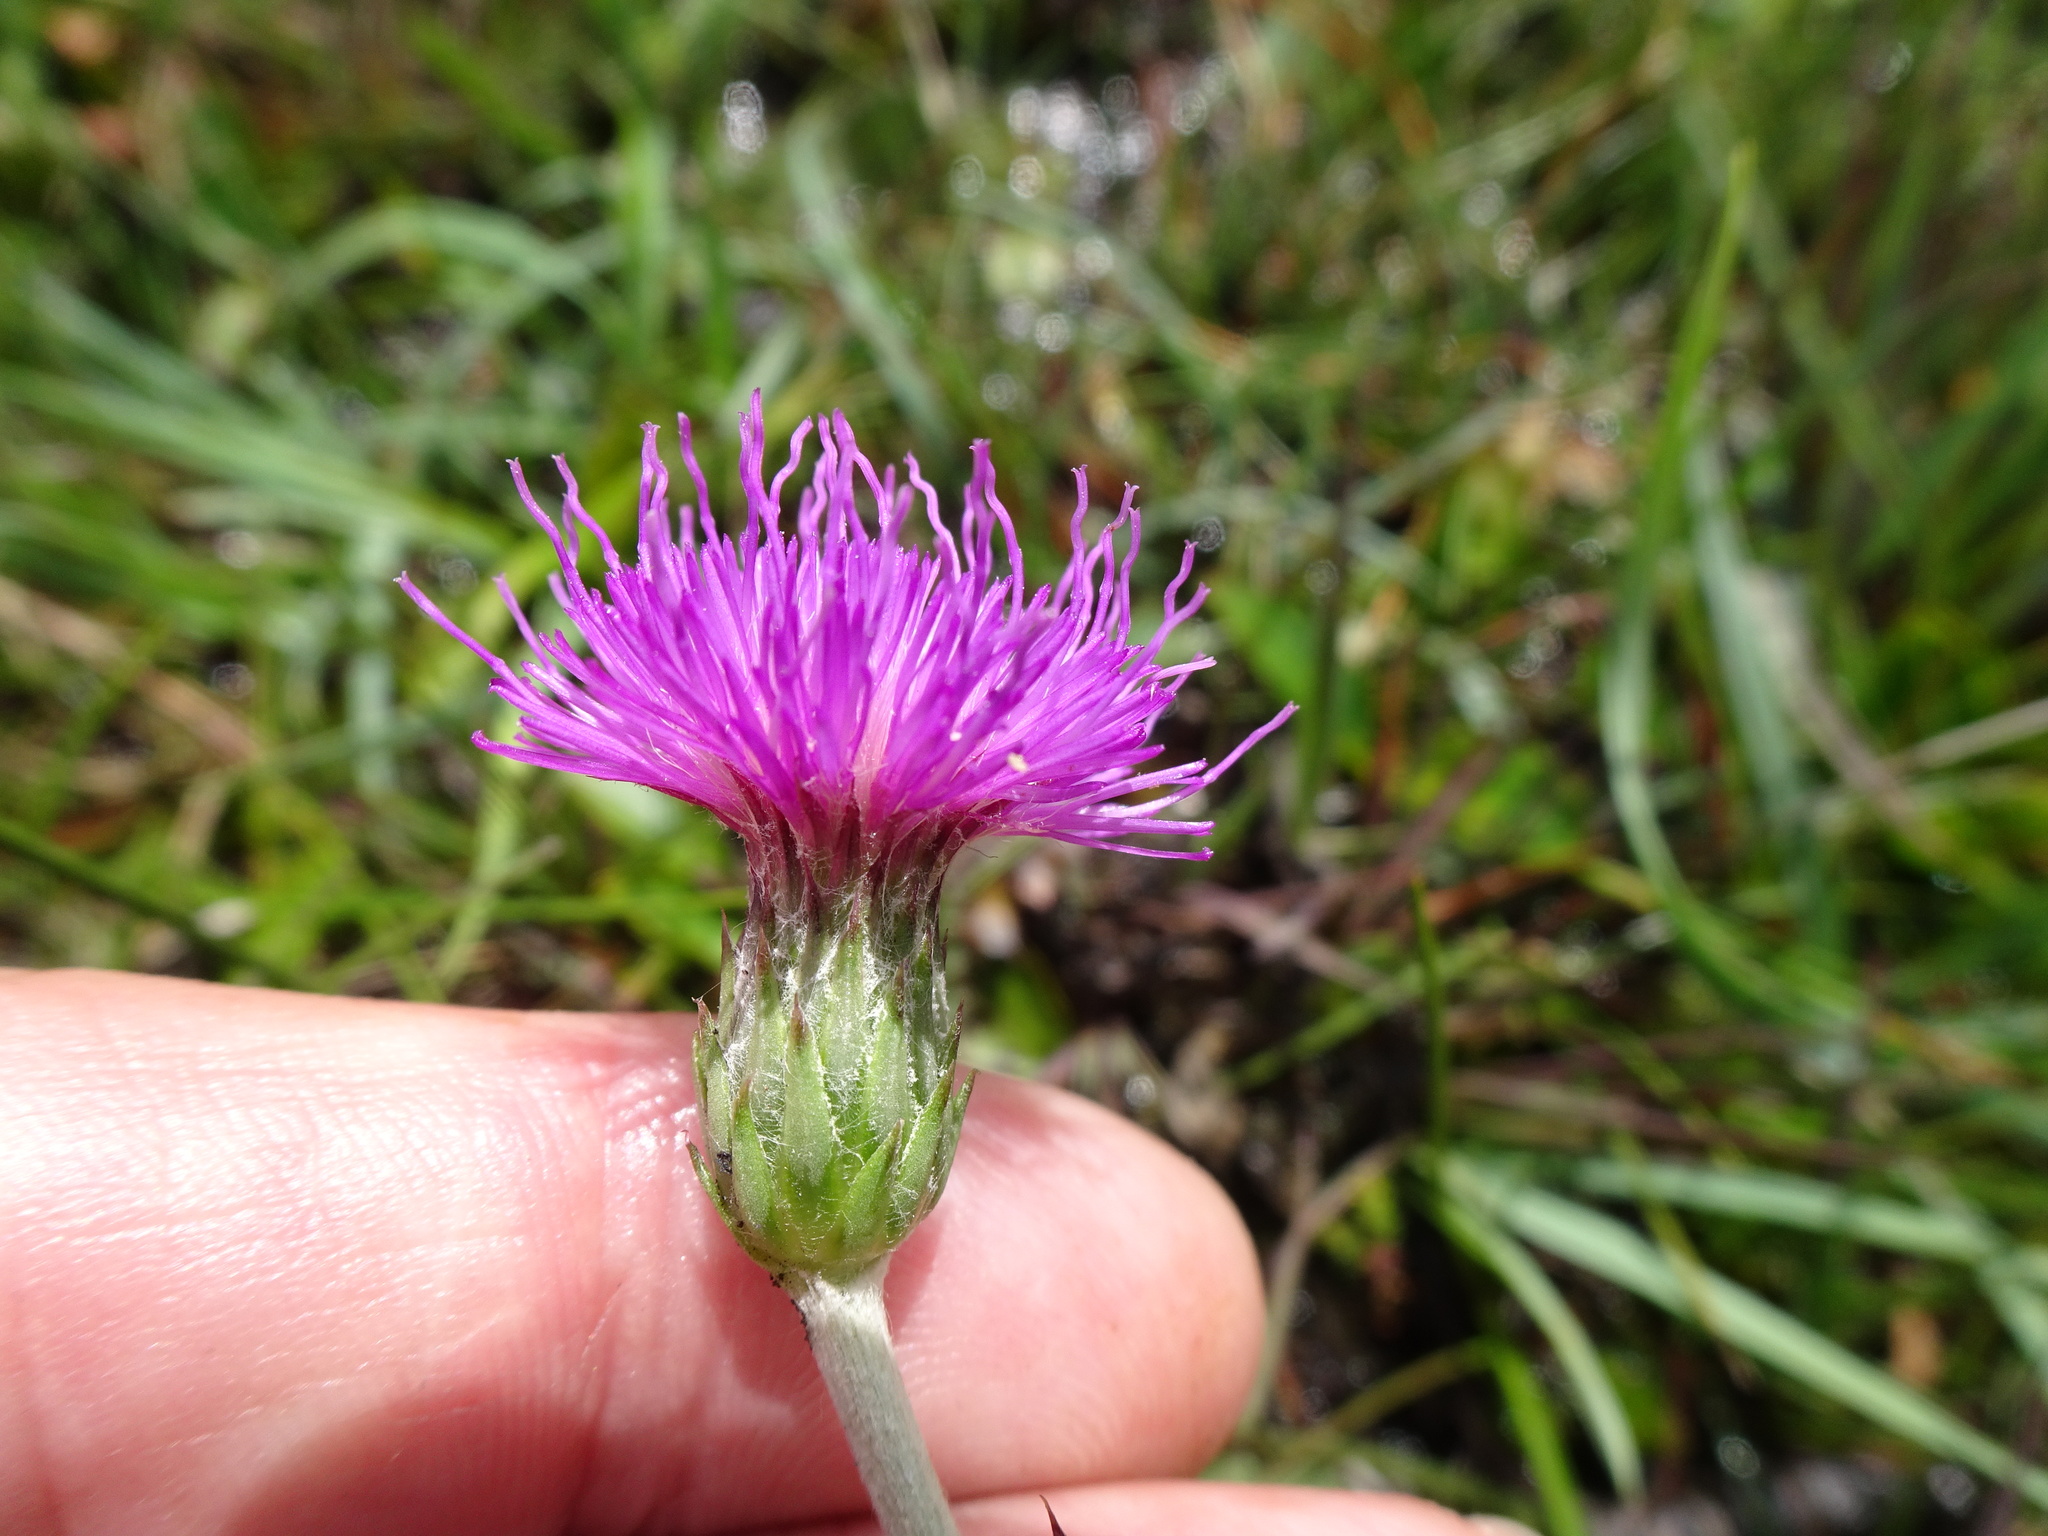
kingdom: Plantae
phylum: Tracheophyta
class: Magnoliopsida
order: Asterales
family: Asteraceae
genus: Cirsium
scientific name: Cirsium dissectum
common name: Meadow thistle
